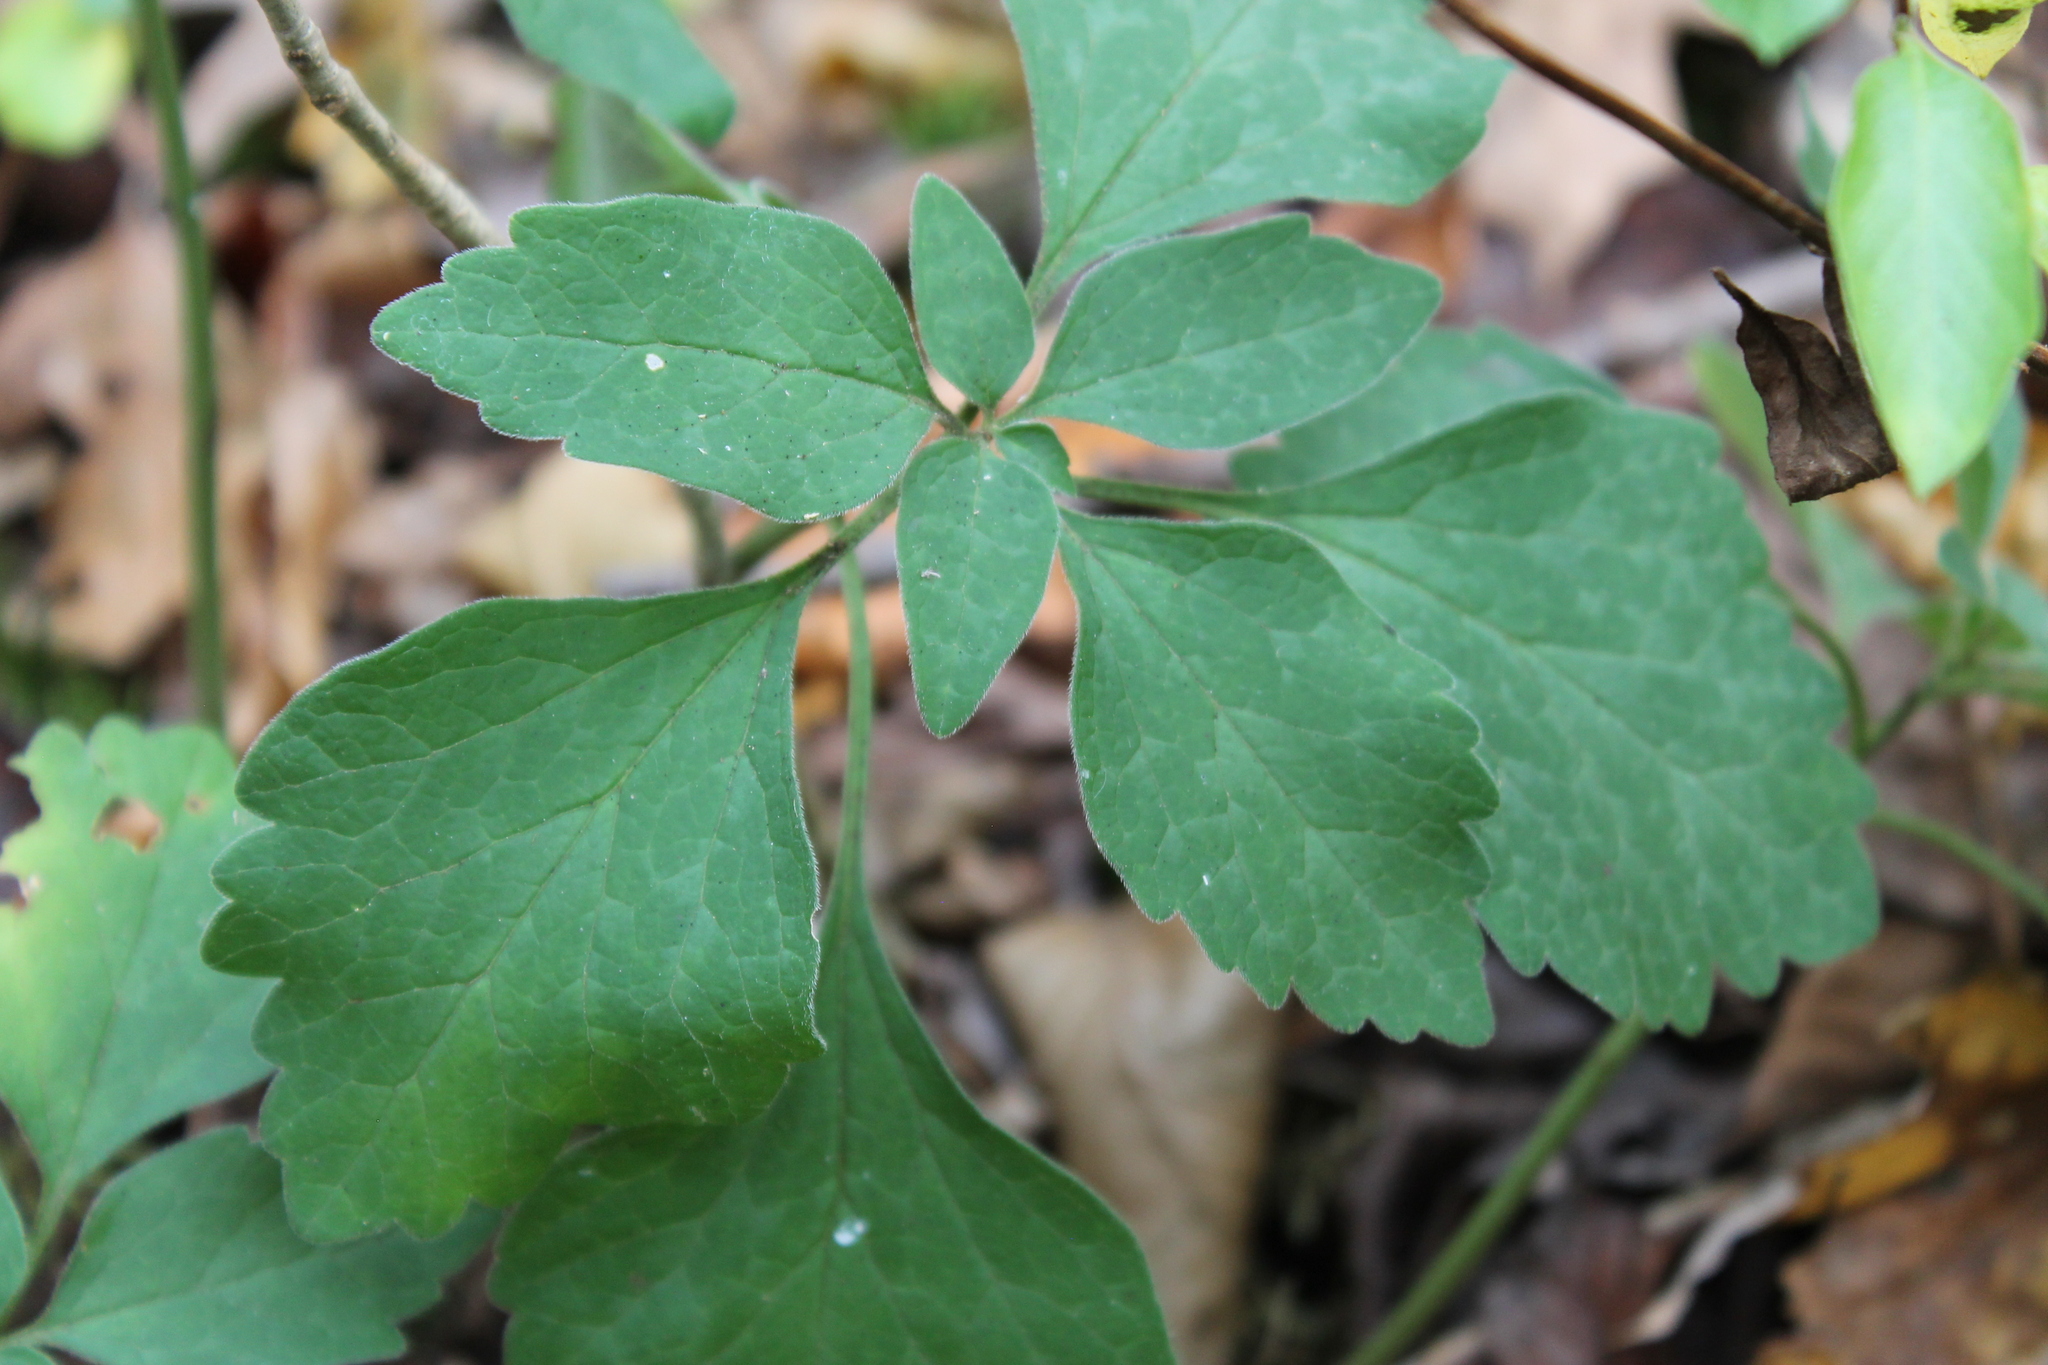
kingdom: Plantae
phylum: Tracheophyta
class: Magnoliopsida
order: Buxales
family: Buxaceae
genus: Pachysandra
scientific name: Pachysandra procumbens
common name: Mountain-spurge
